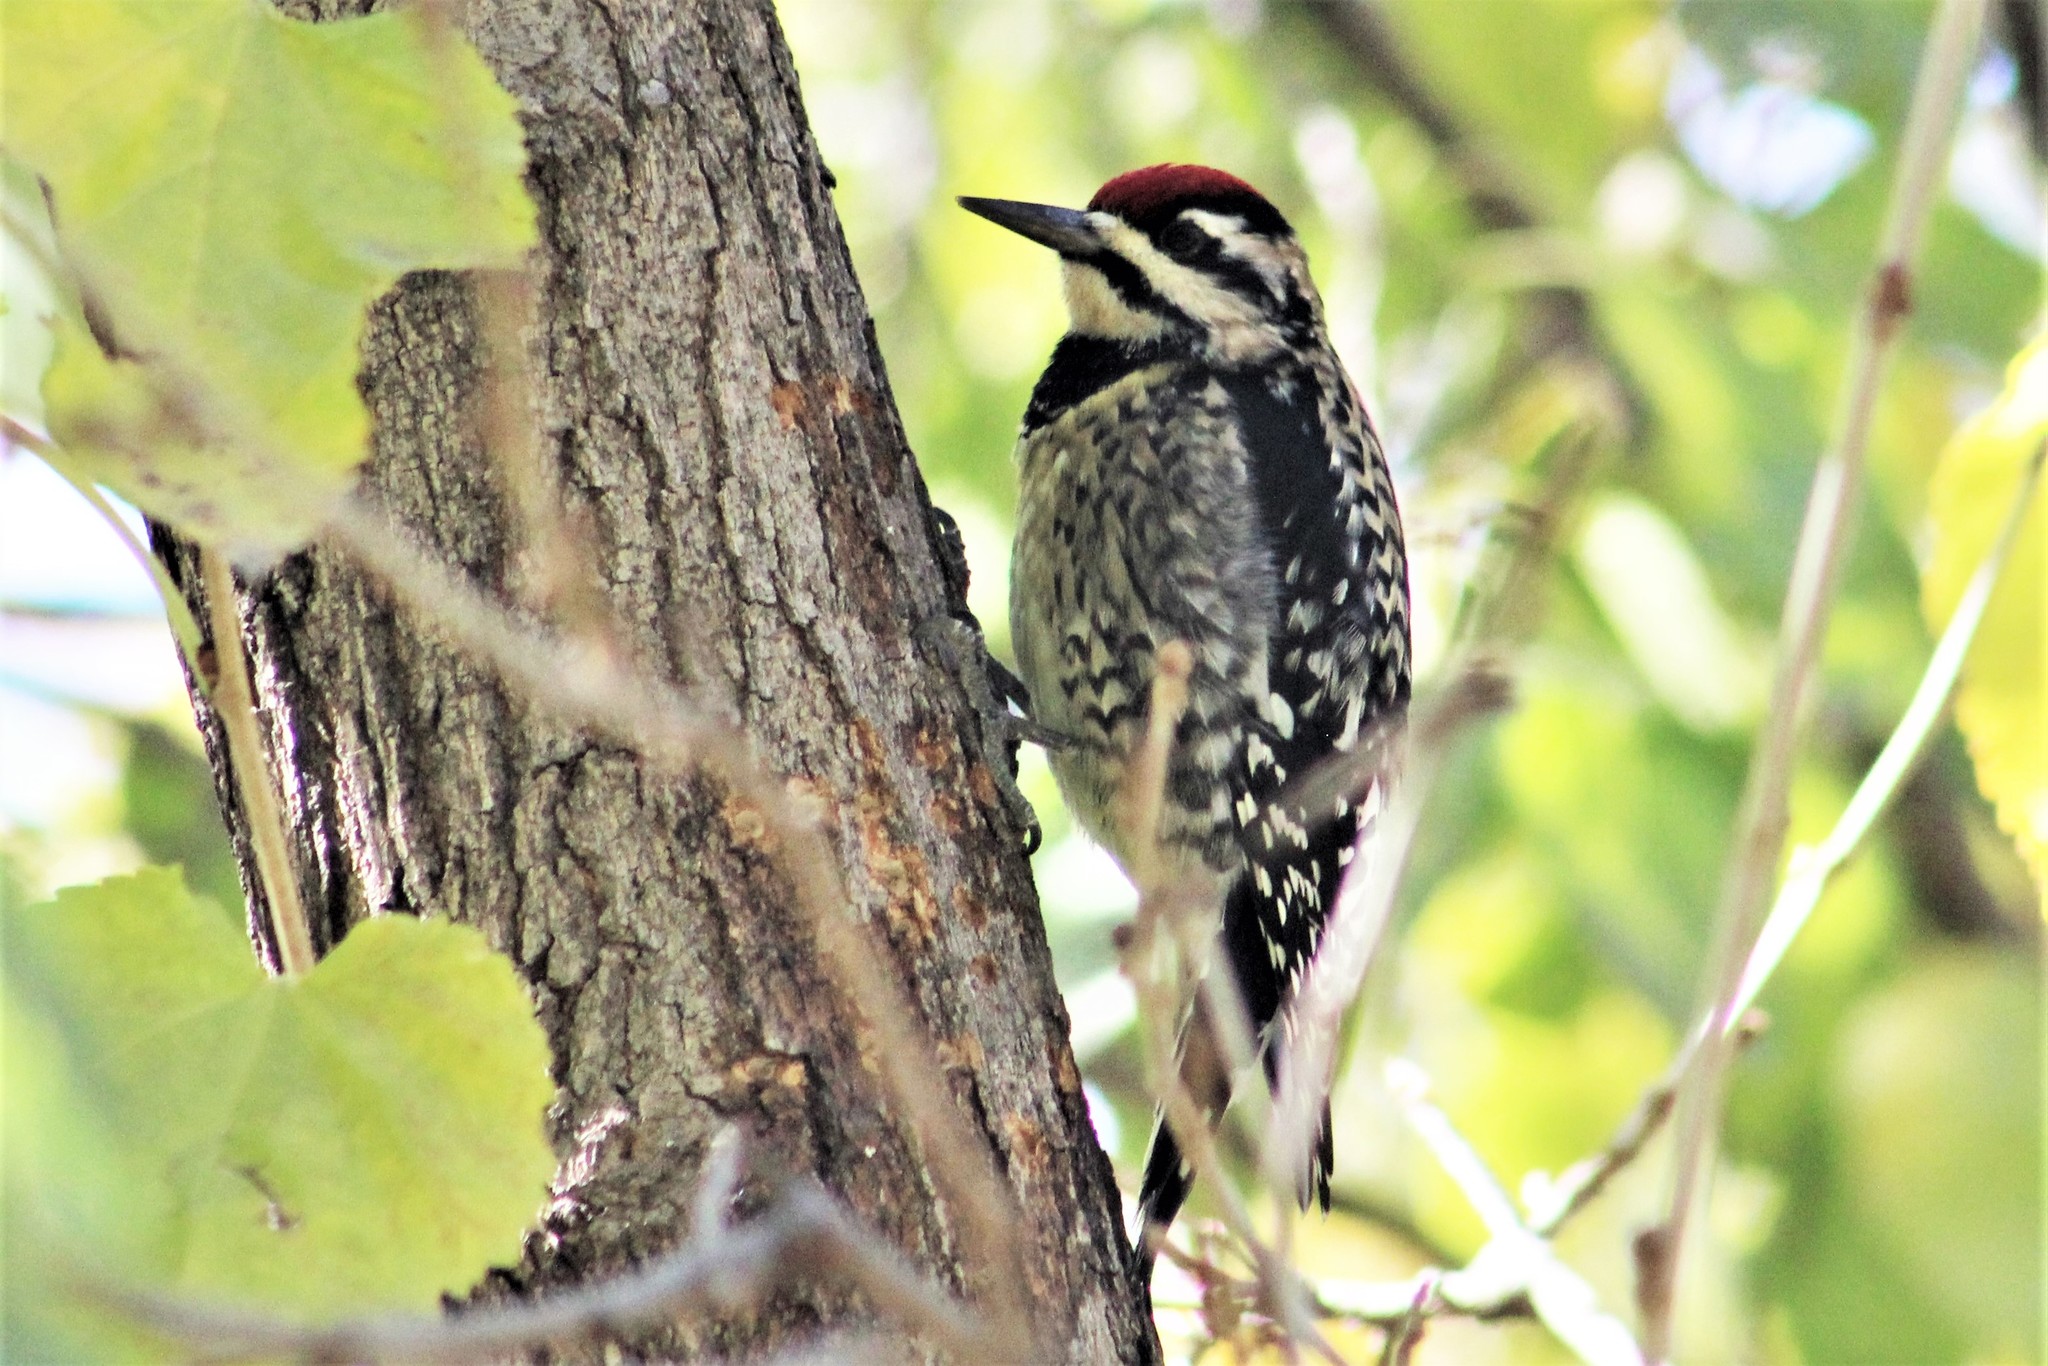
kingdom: Animalia
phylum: Chordata
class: Aves
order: Piciformes
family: Picidae
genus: Sphyrapicus
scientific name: Sphyrapicus varius
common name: Yellow-bellied sapsucker
